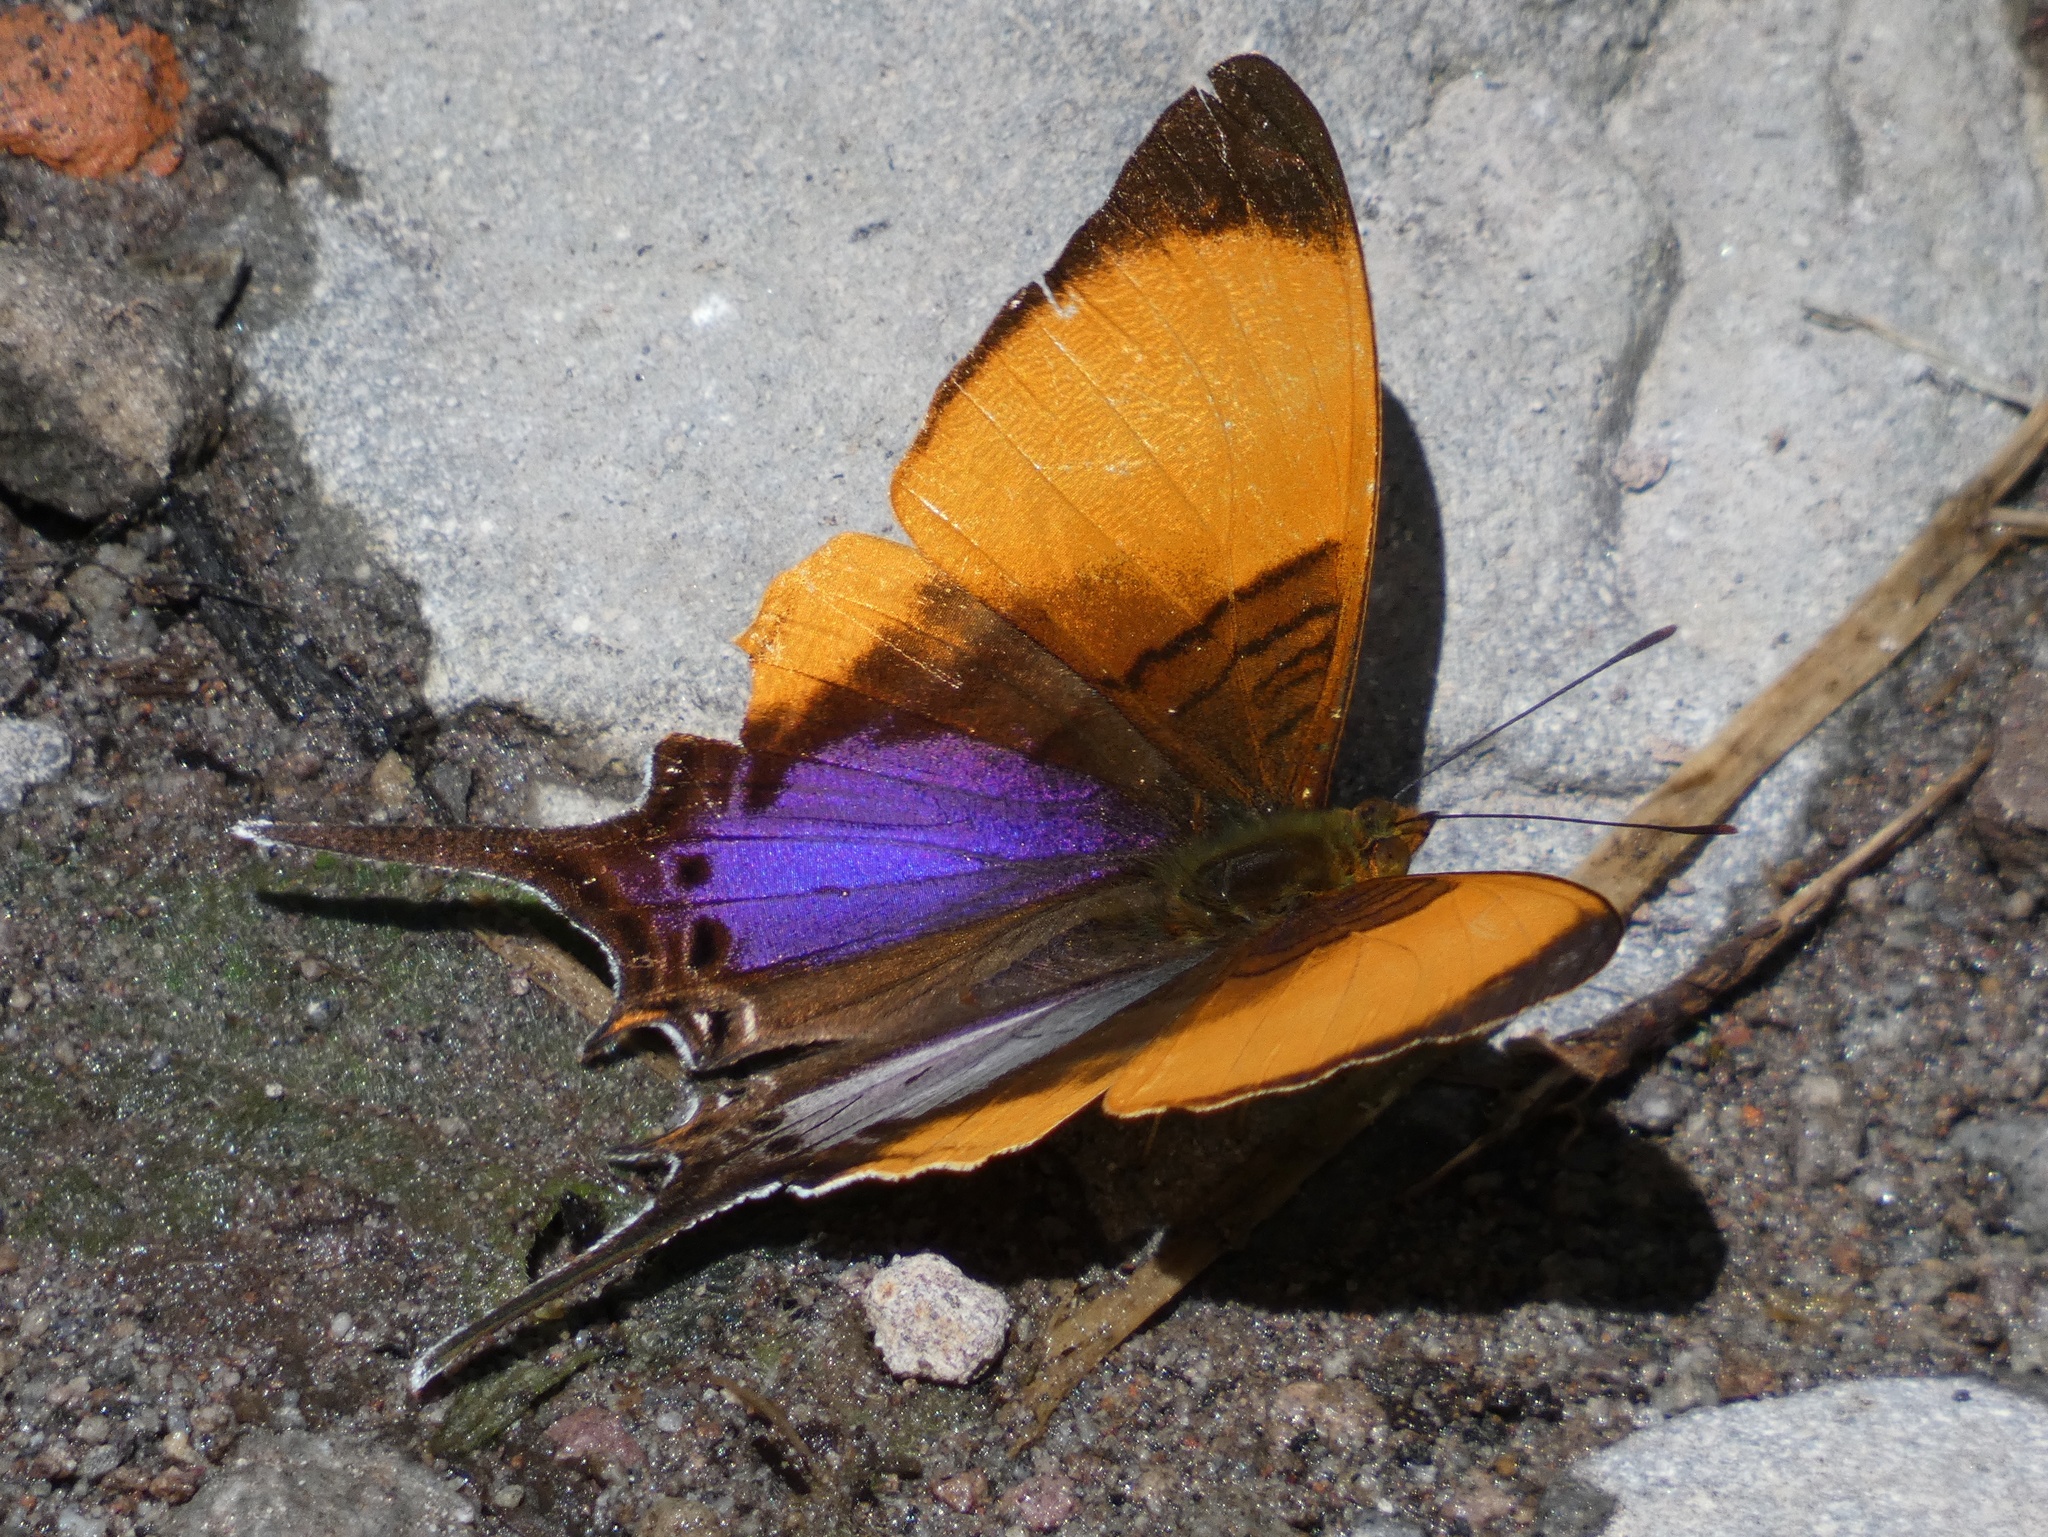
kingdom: Animalia
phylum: Arthropoda
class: Insecta
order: Lepidoptera
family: Nymphalidae
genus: Marpesia
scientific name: Marpesia marcella
